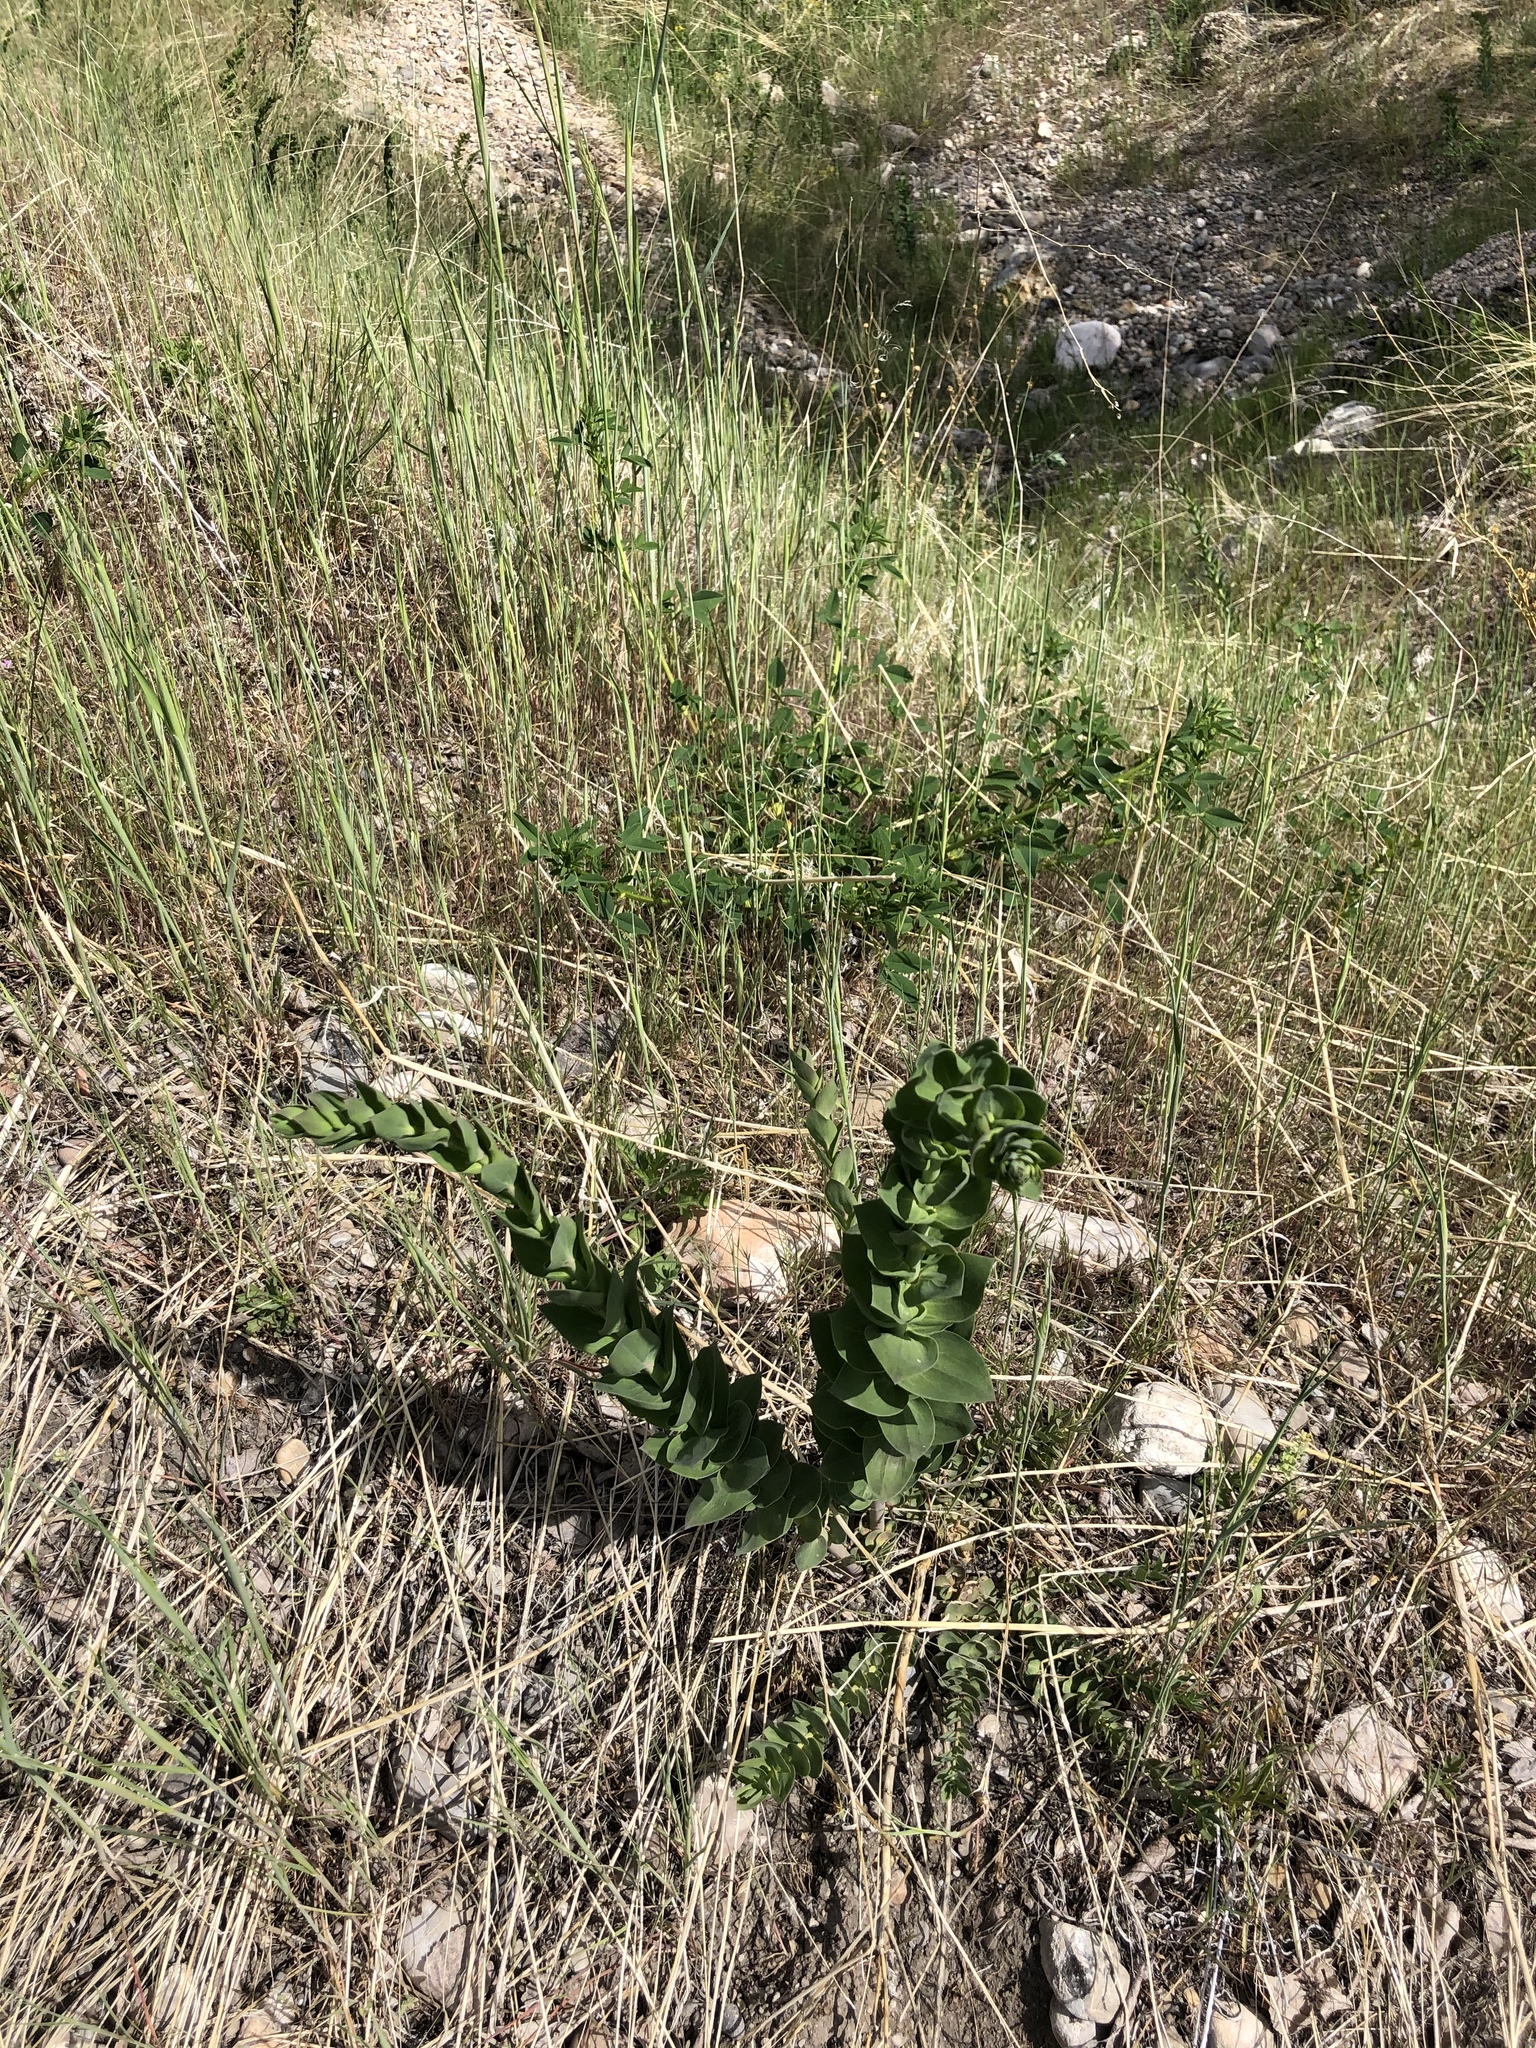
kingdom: Plantae
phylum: Tracheophyta
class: Magnoliopsida
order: Lamiales
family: Plantaginaceae
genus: Linaria
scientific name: Linaria dalmatica
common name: Dalmatian toadflax
